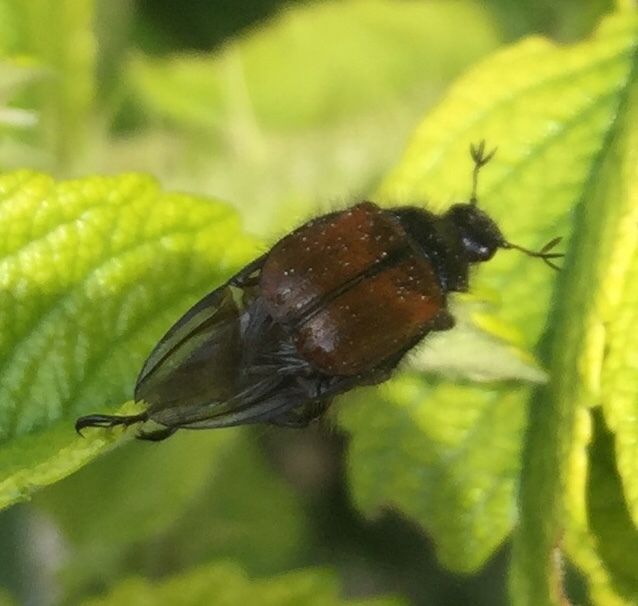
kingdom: Animalia
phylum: Arthropoda
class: Insecta
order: Coleoptera
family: Scarabaeidae
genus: Phyllopertha
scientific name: Phyllopertha horticola
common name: Garden chafer
